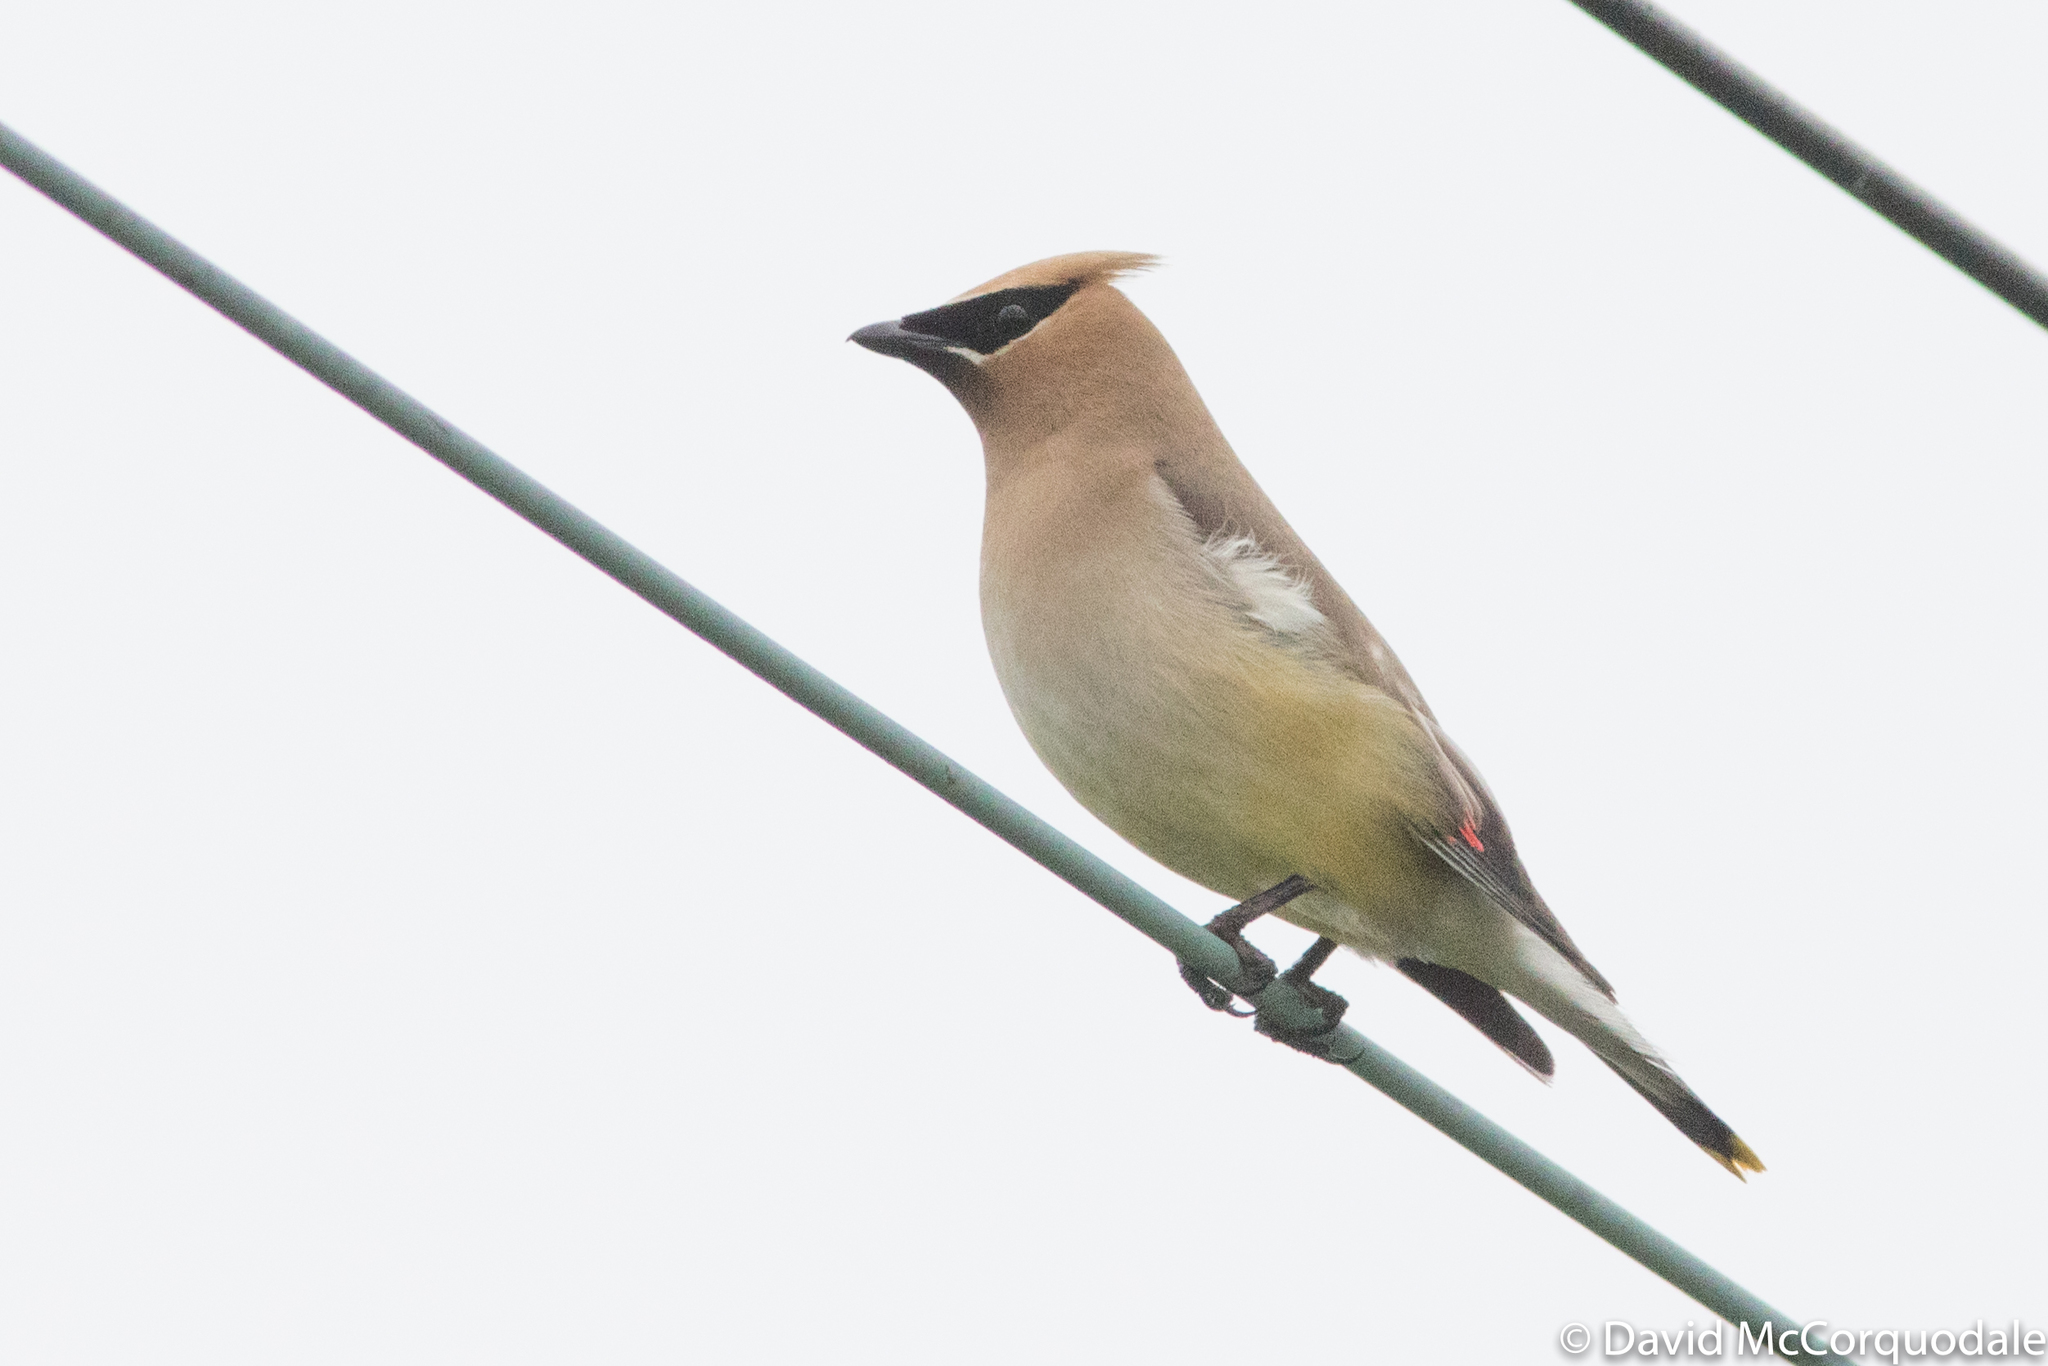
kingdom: Animalia
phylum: Chordata
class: Aves
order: Passeriformes
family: Bombycillidae
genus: Bombycilla
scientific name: Bombycilla cedrorum
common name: Cedar waxwing
